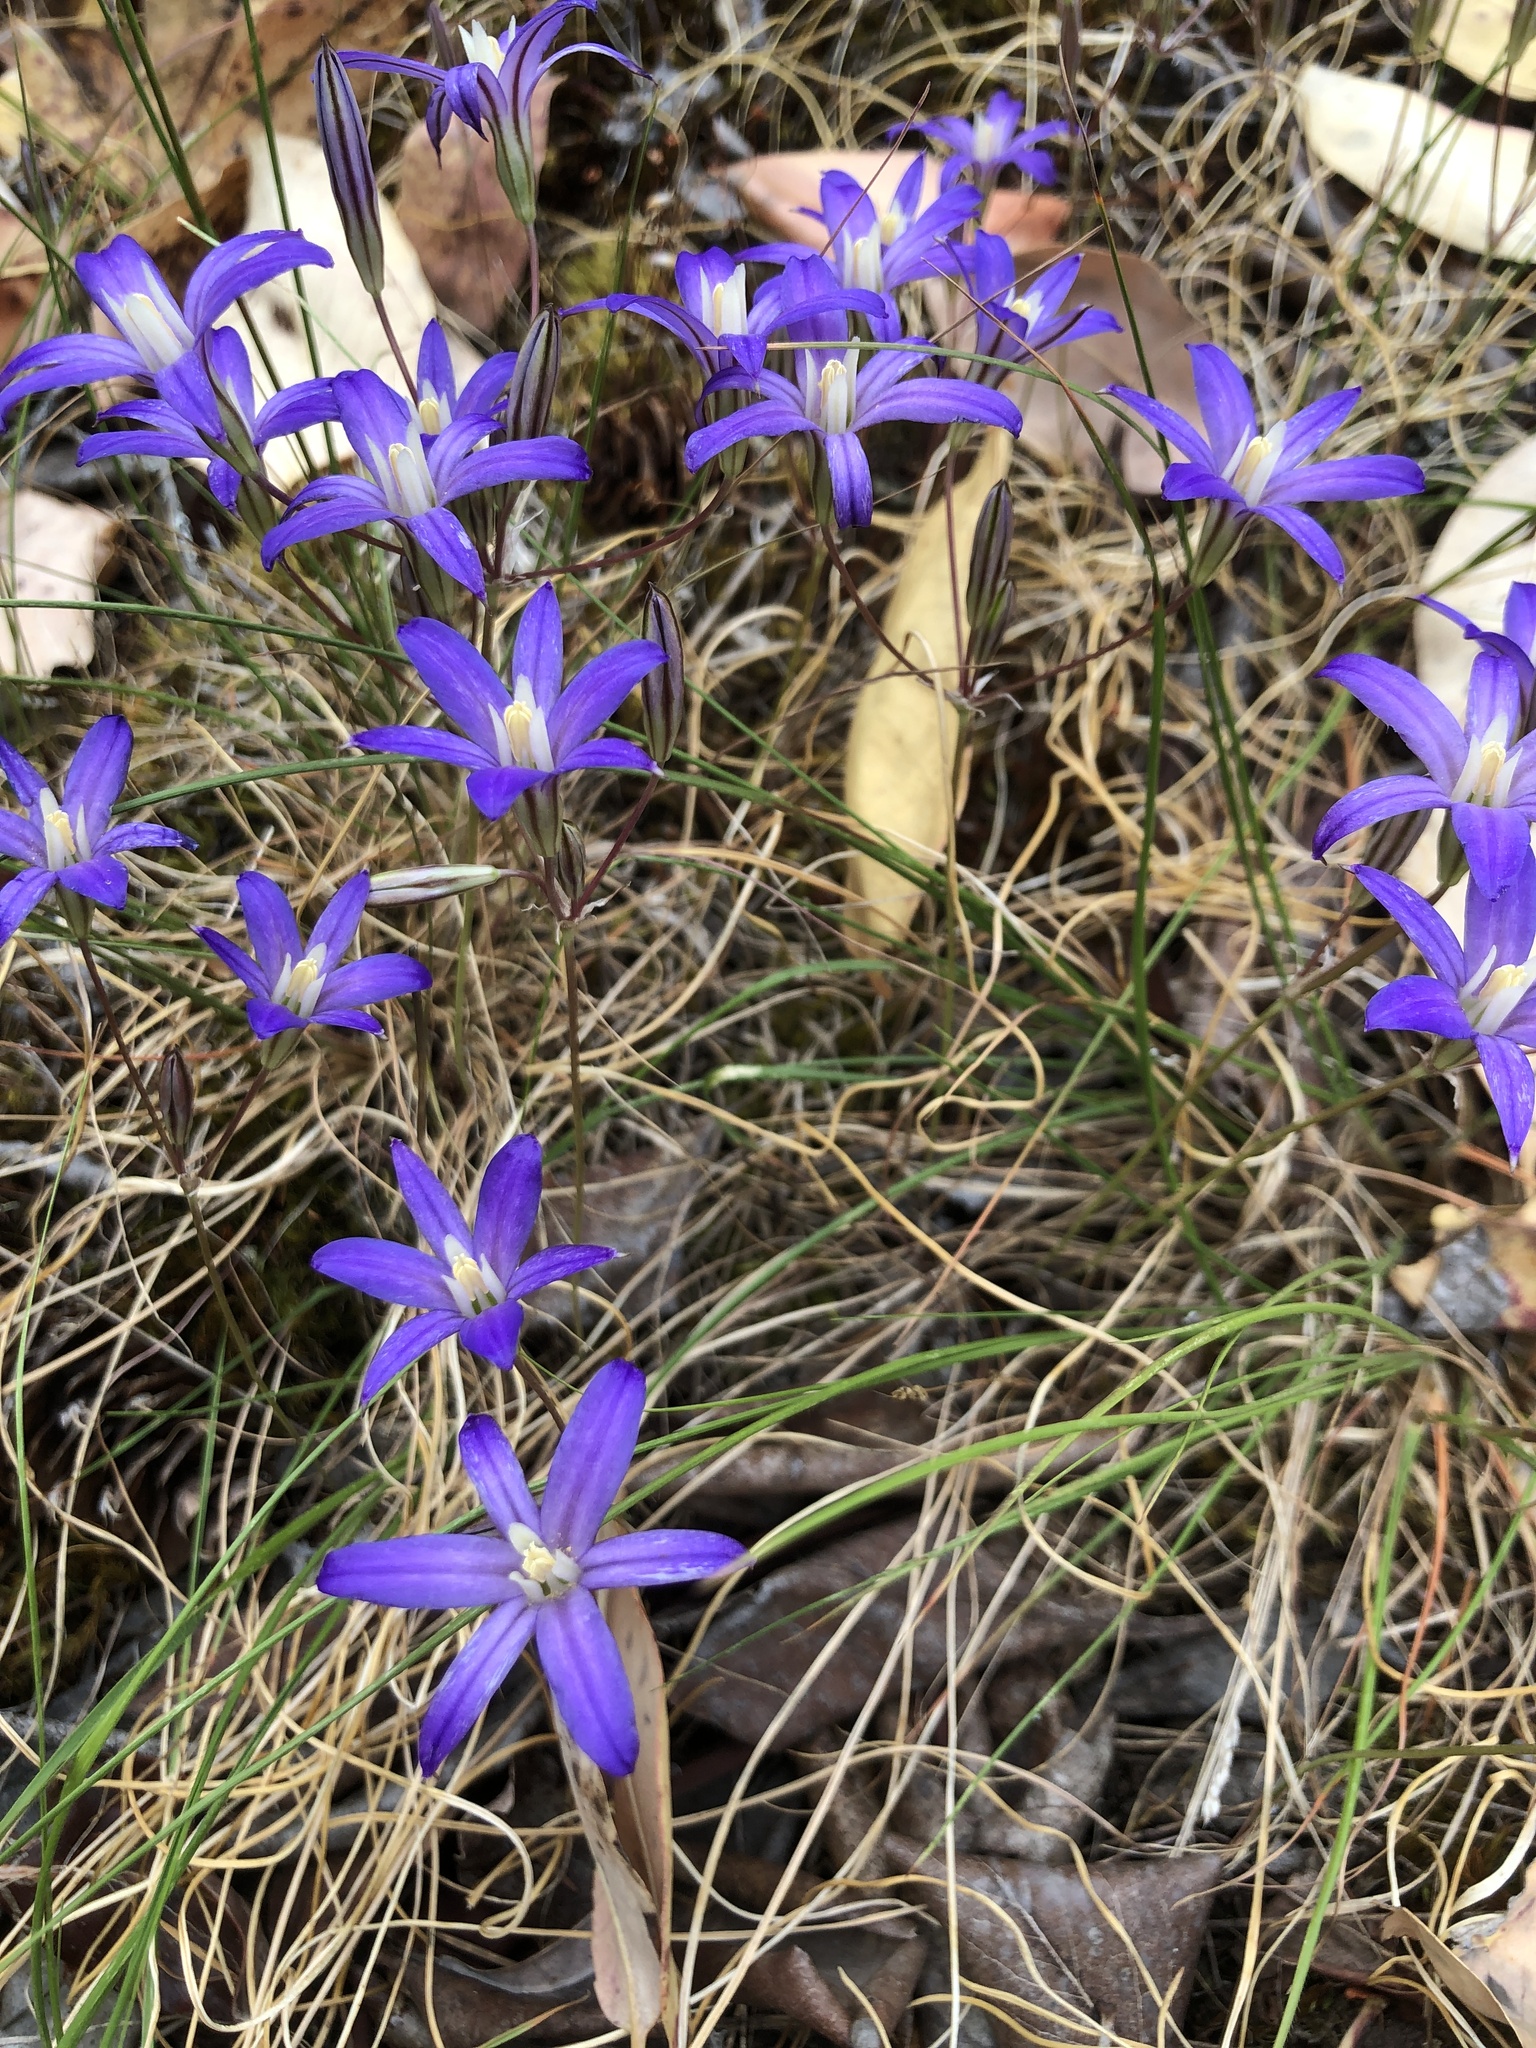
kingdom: Plantae
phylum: Tracheophyta
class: Liliopsida
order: Asparagales
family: Asparagaceae
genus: Brodiaea
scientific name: Brodiaea coronaria
